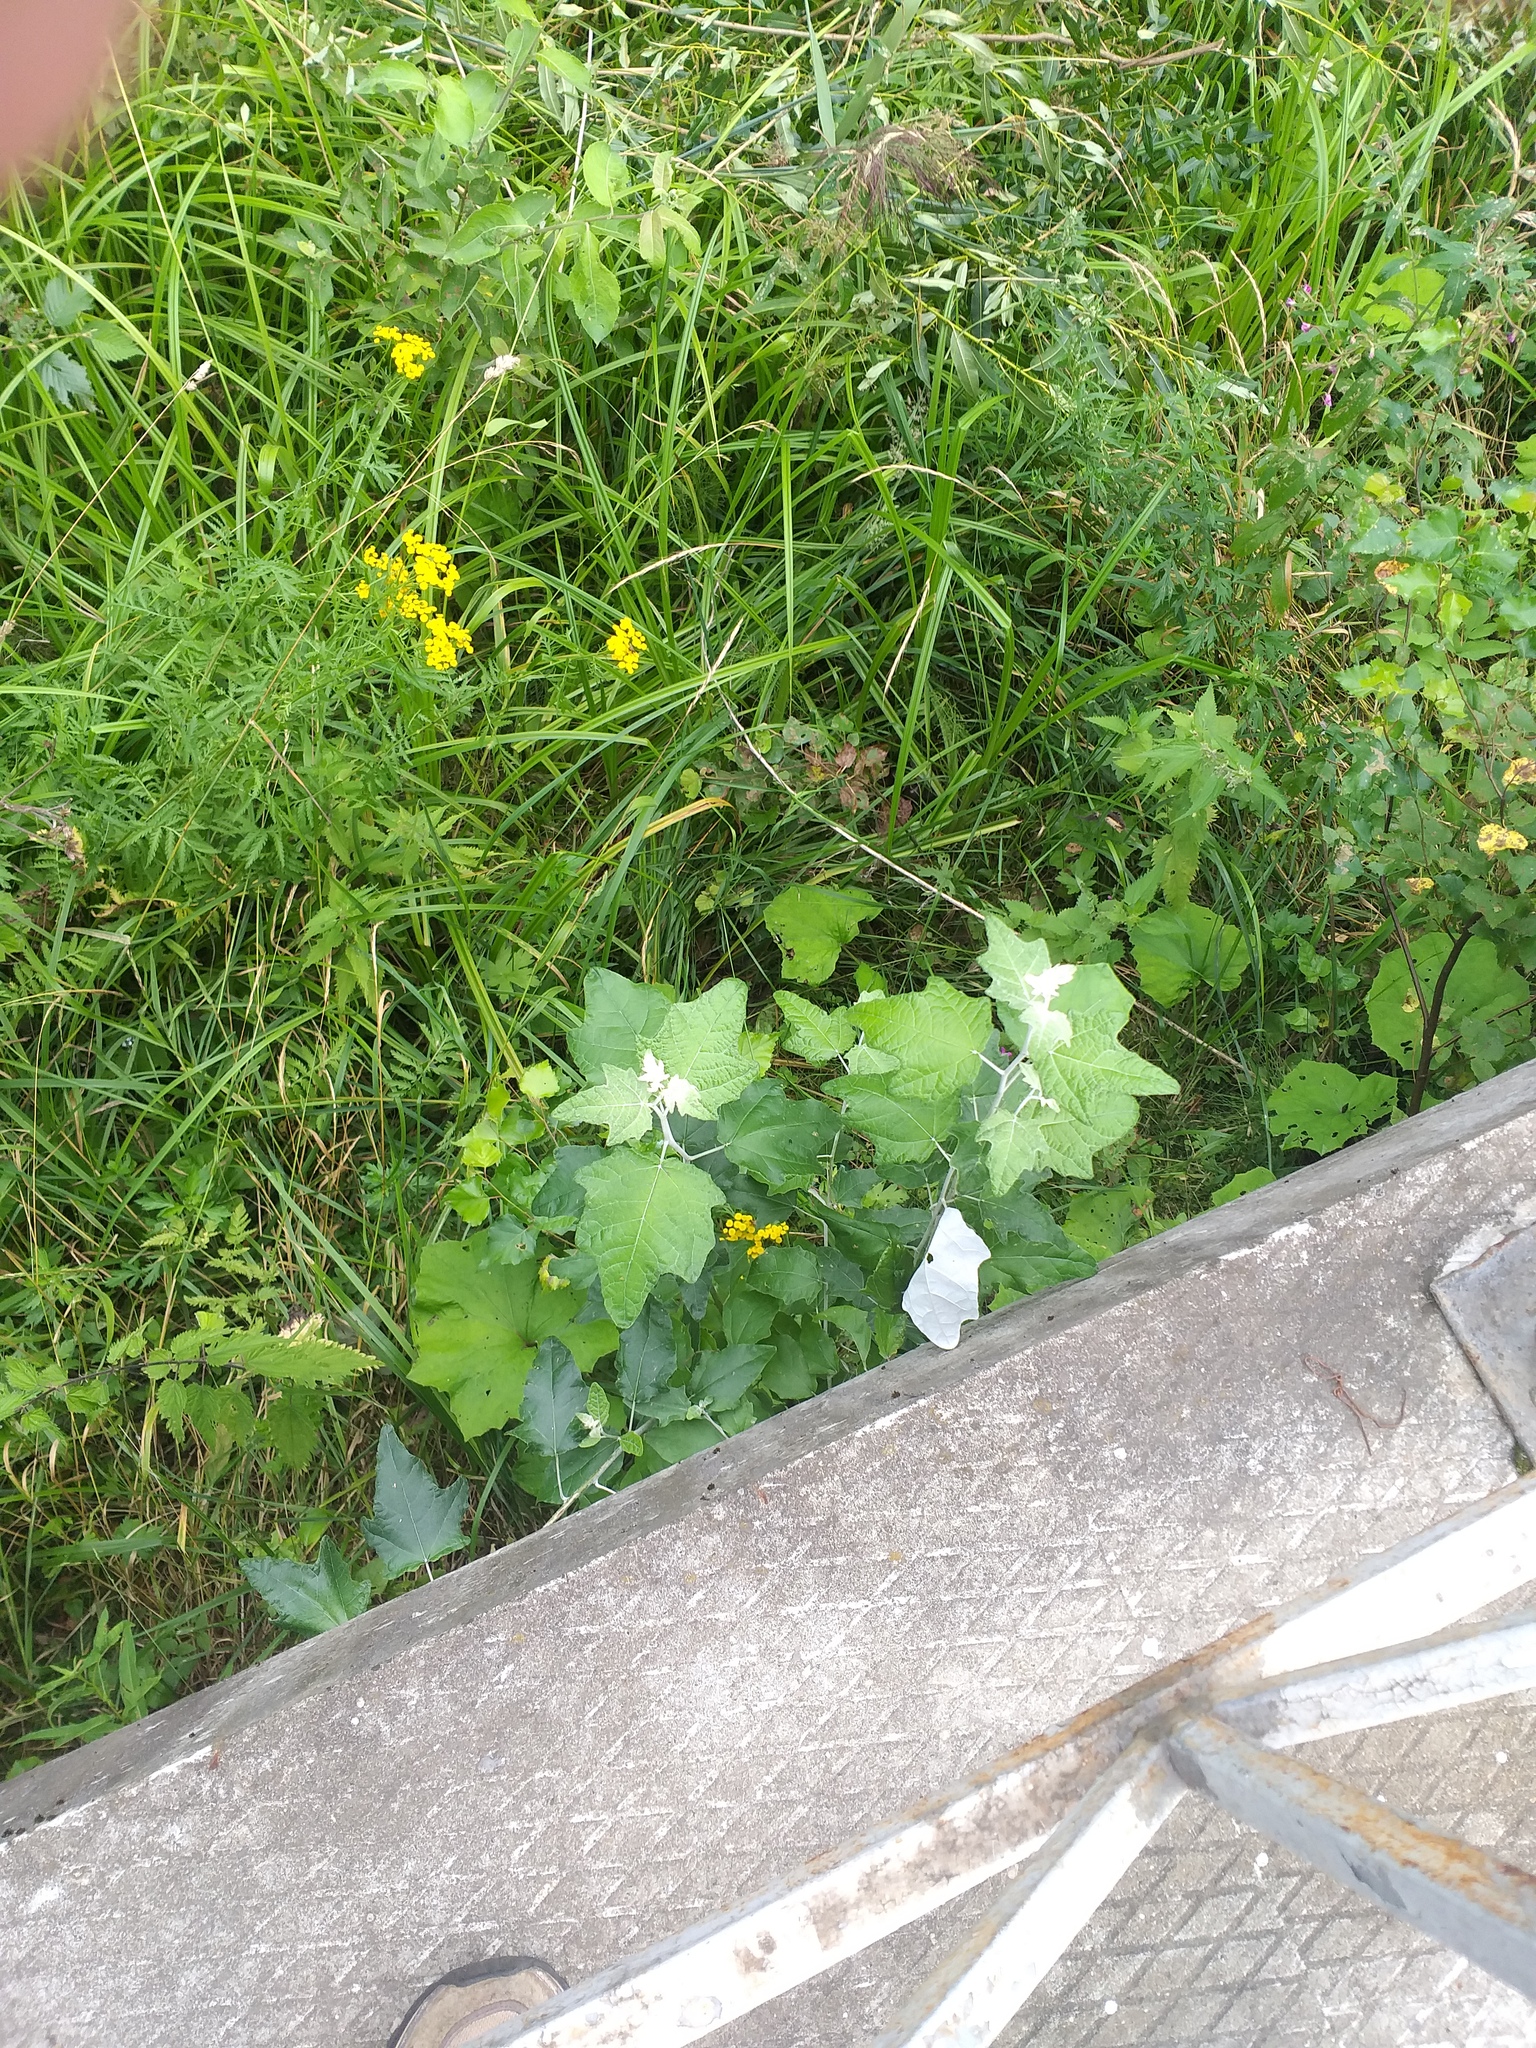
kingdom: Plantae
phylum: Tracheophyta
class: Magnoliopsida
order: Malpighiales
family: Salicaceae
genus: Populus
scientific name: Populus alba
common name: White poplar
